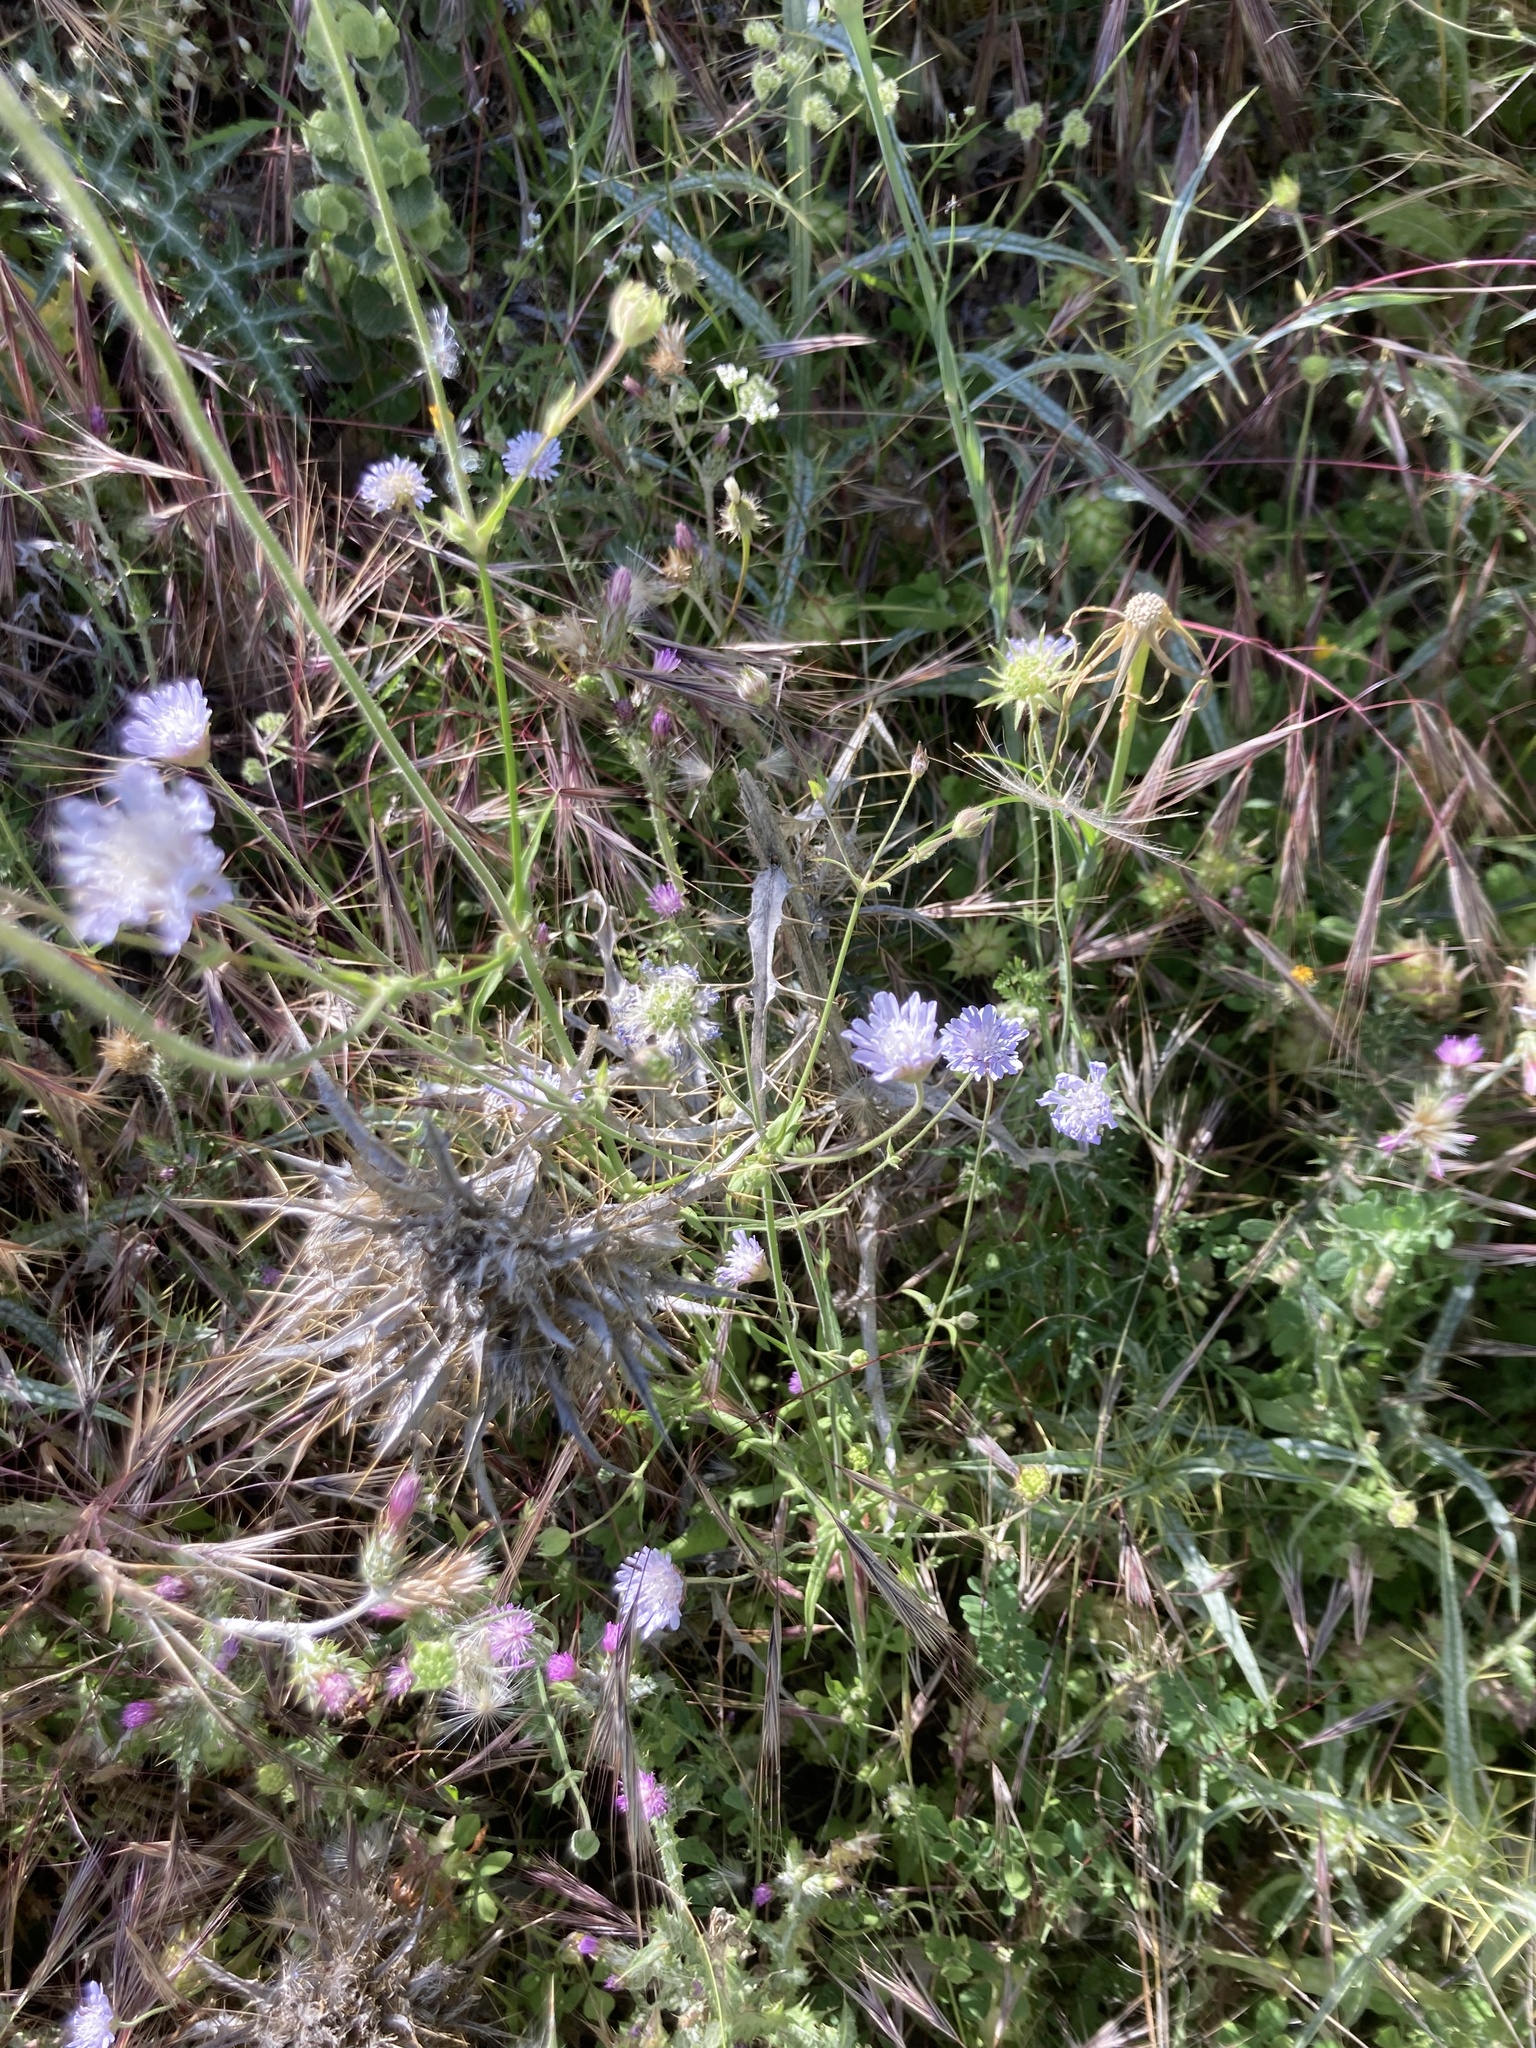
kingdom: Plantae
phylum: Tracheophyta
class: Magnoliopsida
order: Dipsacales
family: Caprifoliaceae
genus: Knautia
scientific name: Knautia integrifolia
